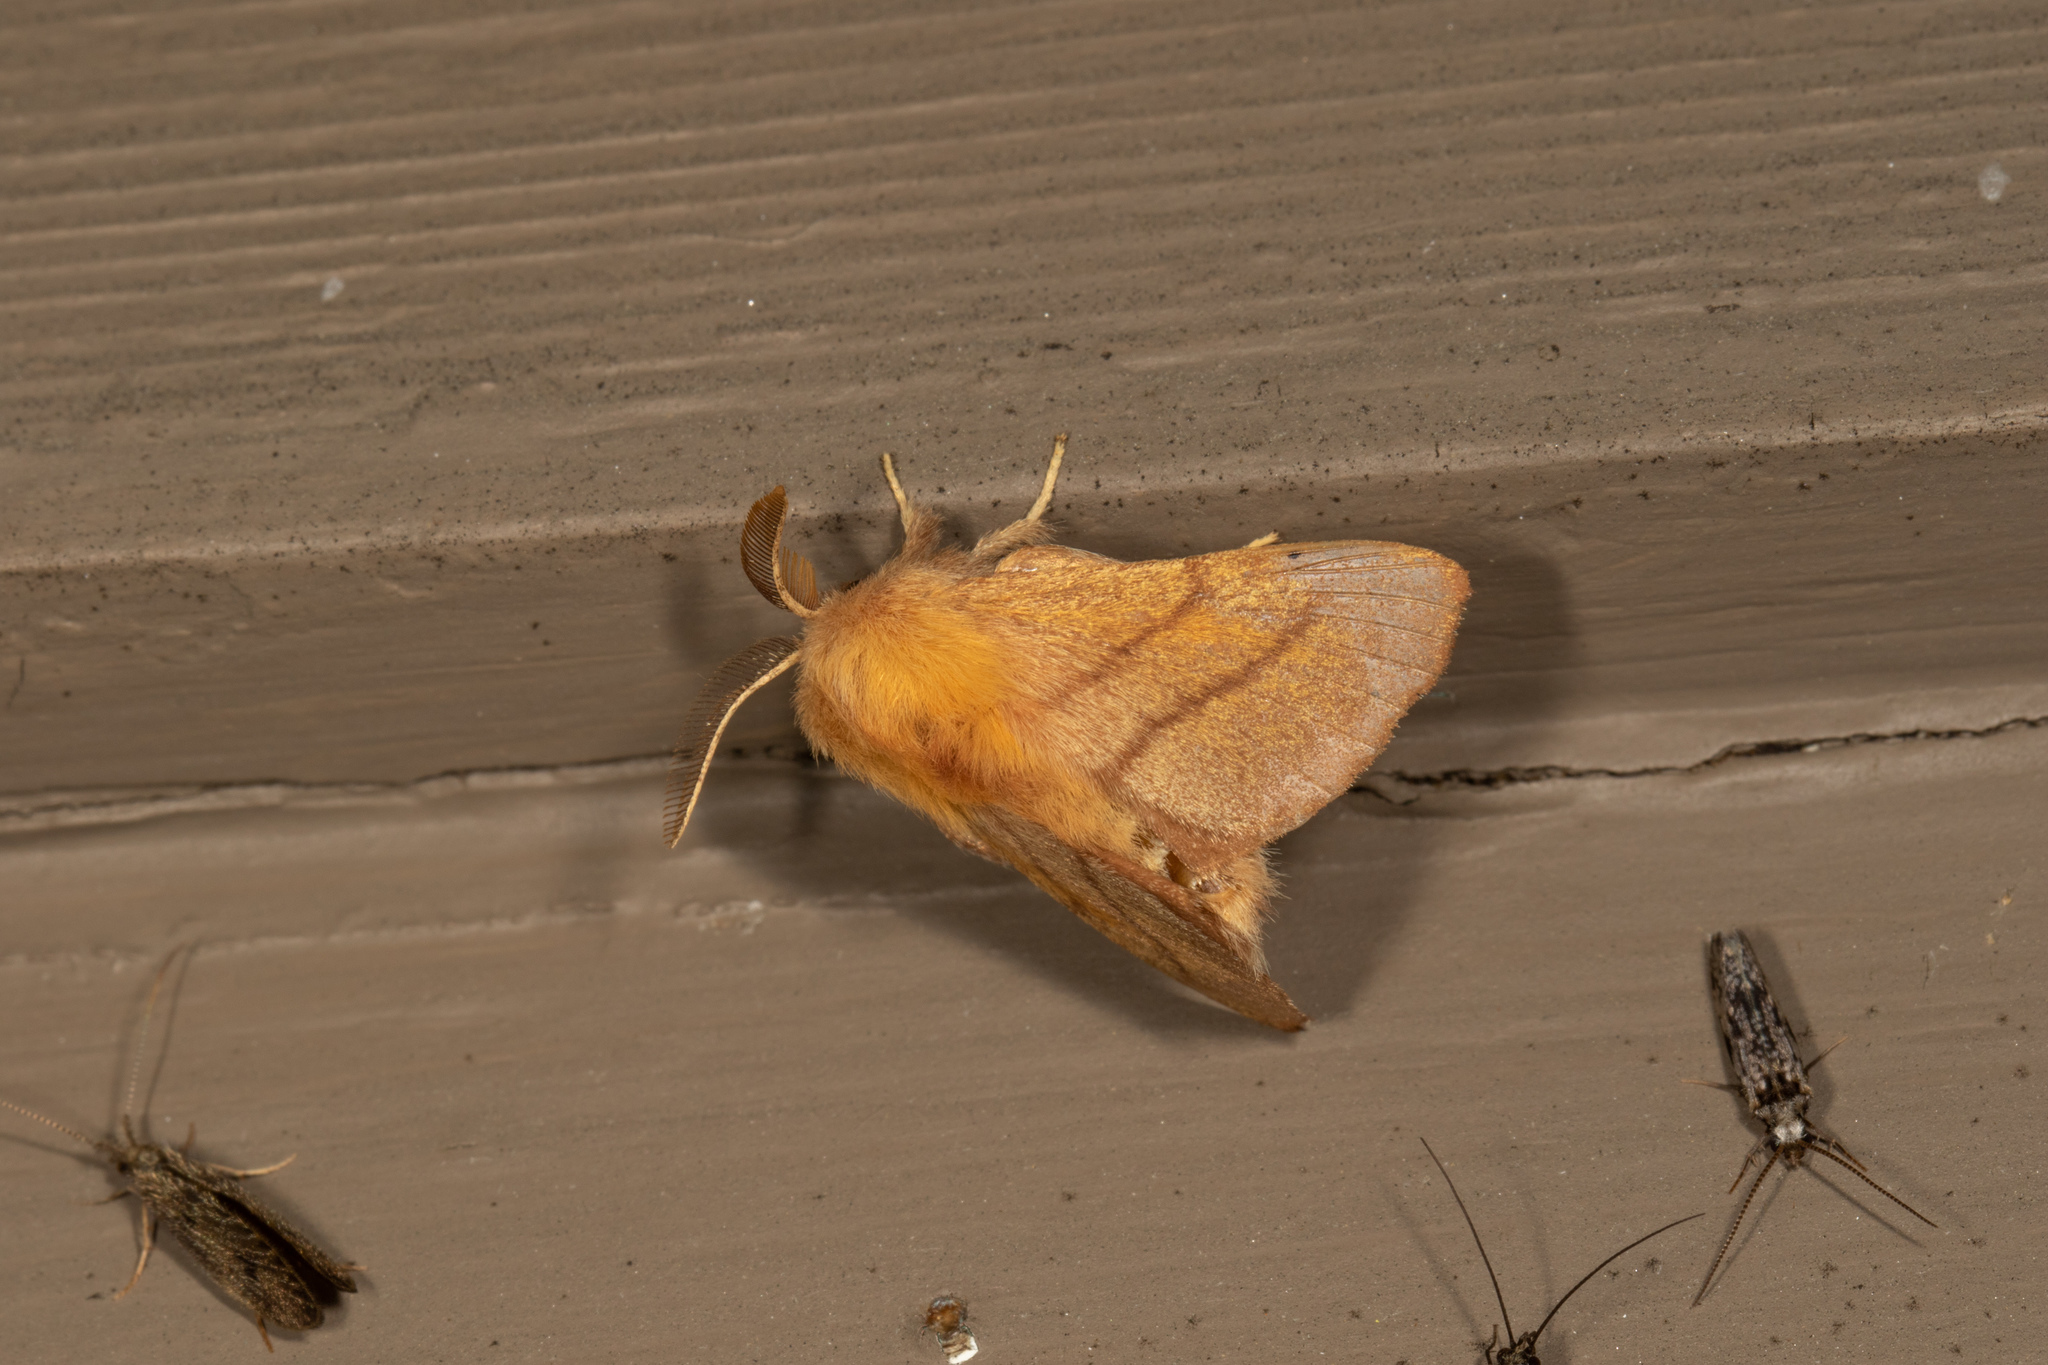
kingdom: Animalia
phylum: Arthropoda
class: Insecta
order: Lepidoptera
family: Lasiocampidae
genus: Malacosoma
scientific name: Malacosoma disstria
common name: Forest tent caterpillar
